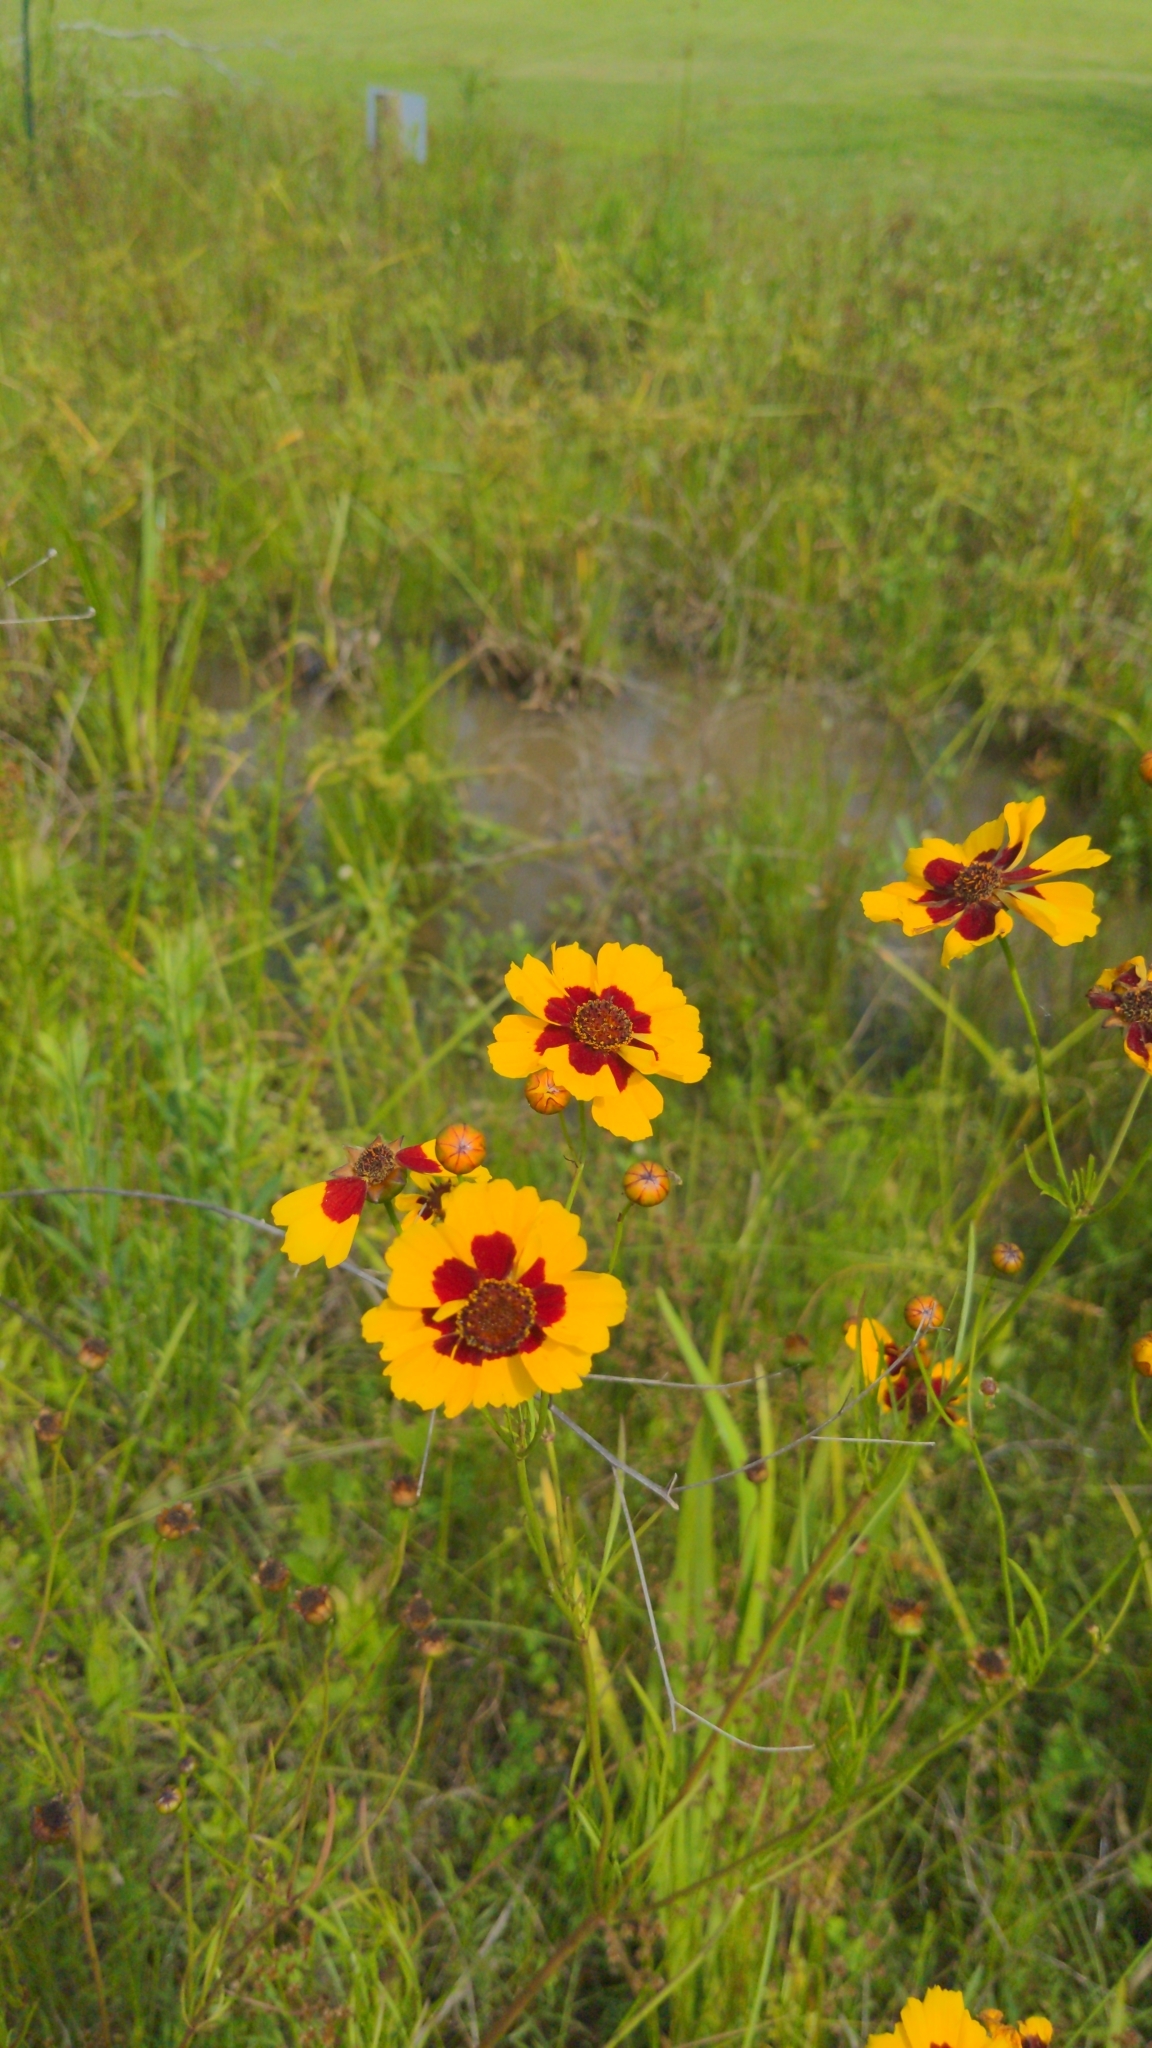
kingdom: Plantae
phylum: Tracheophyta
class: Magnoliopsida
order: Asterales
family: Asteraceae
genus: Coreopsis
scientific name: Coreopsis tinctoria
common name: Garden tickseed
